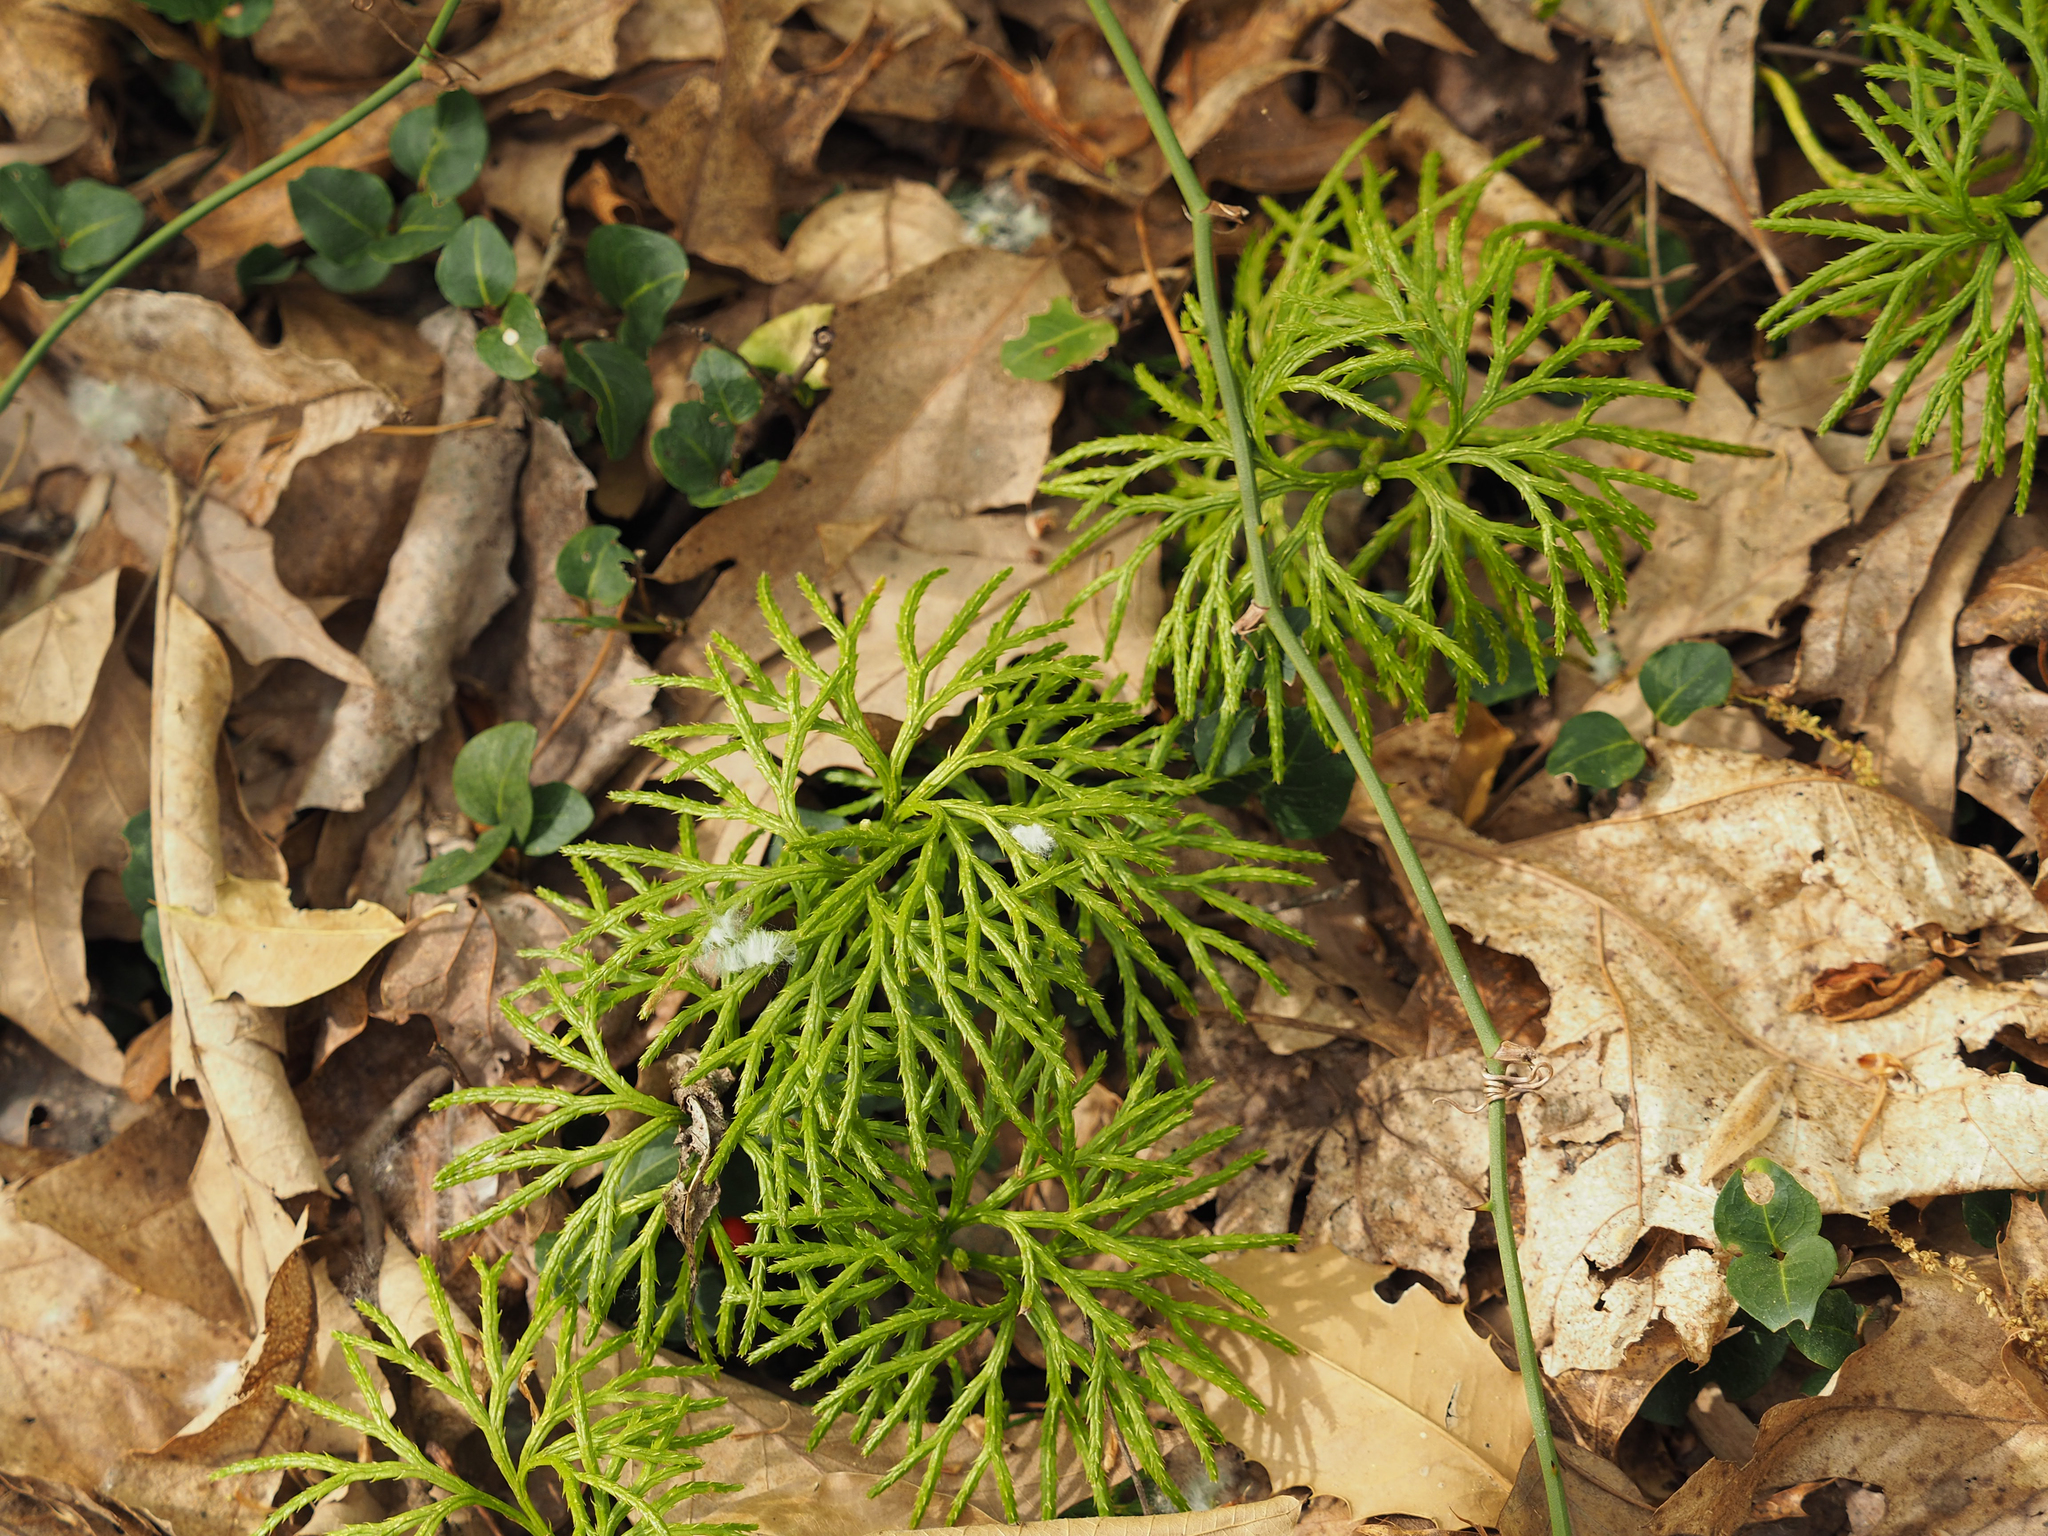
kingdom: Plantae
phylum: Tracheophyta
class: Lycopodiopsida
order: Lycopodiales
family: Lycopodiaceae
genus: Diphasiastrum
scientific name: Diphasiastrum digitatum
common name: Southern running-pine
